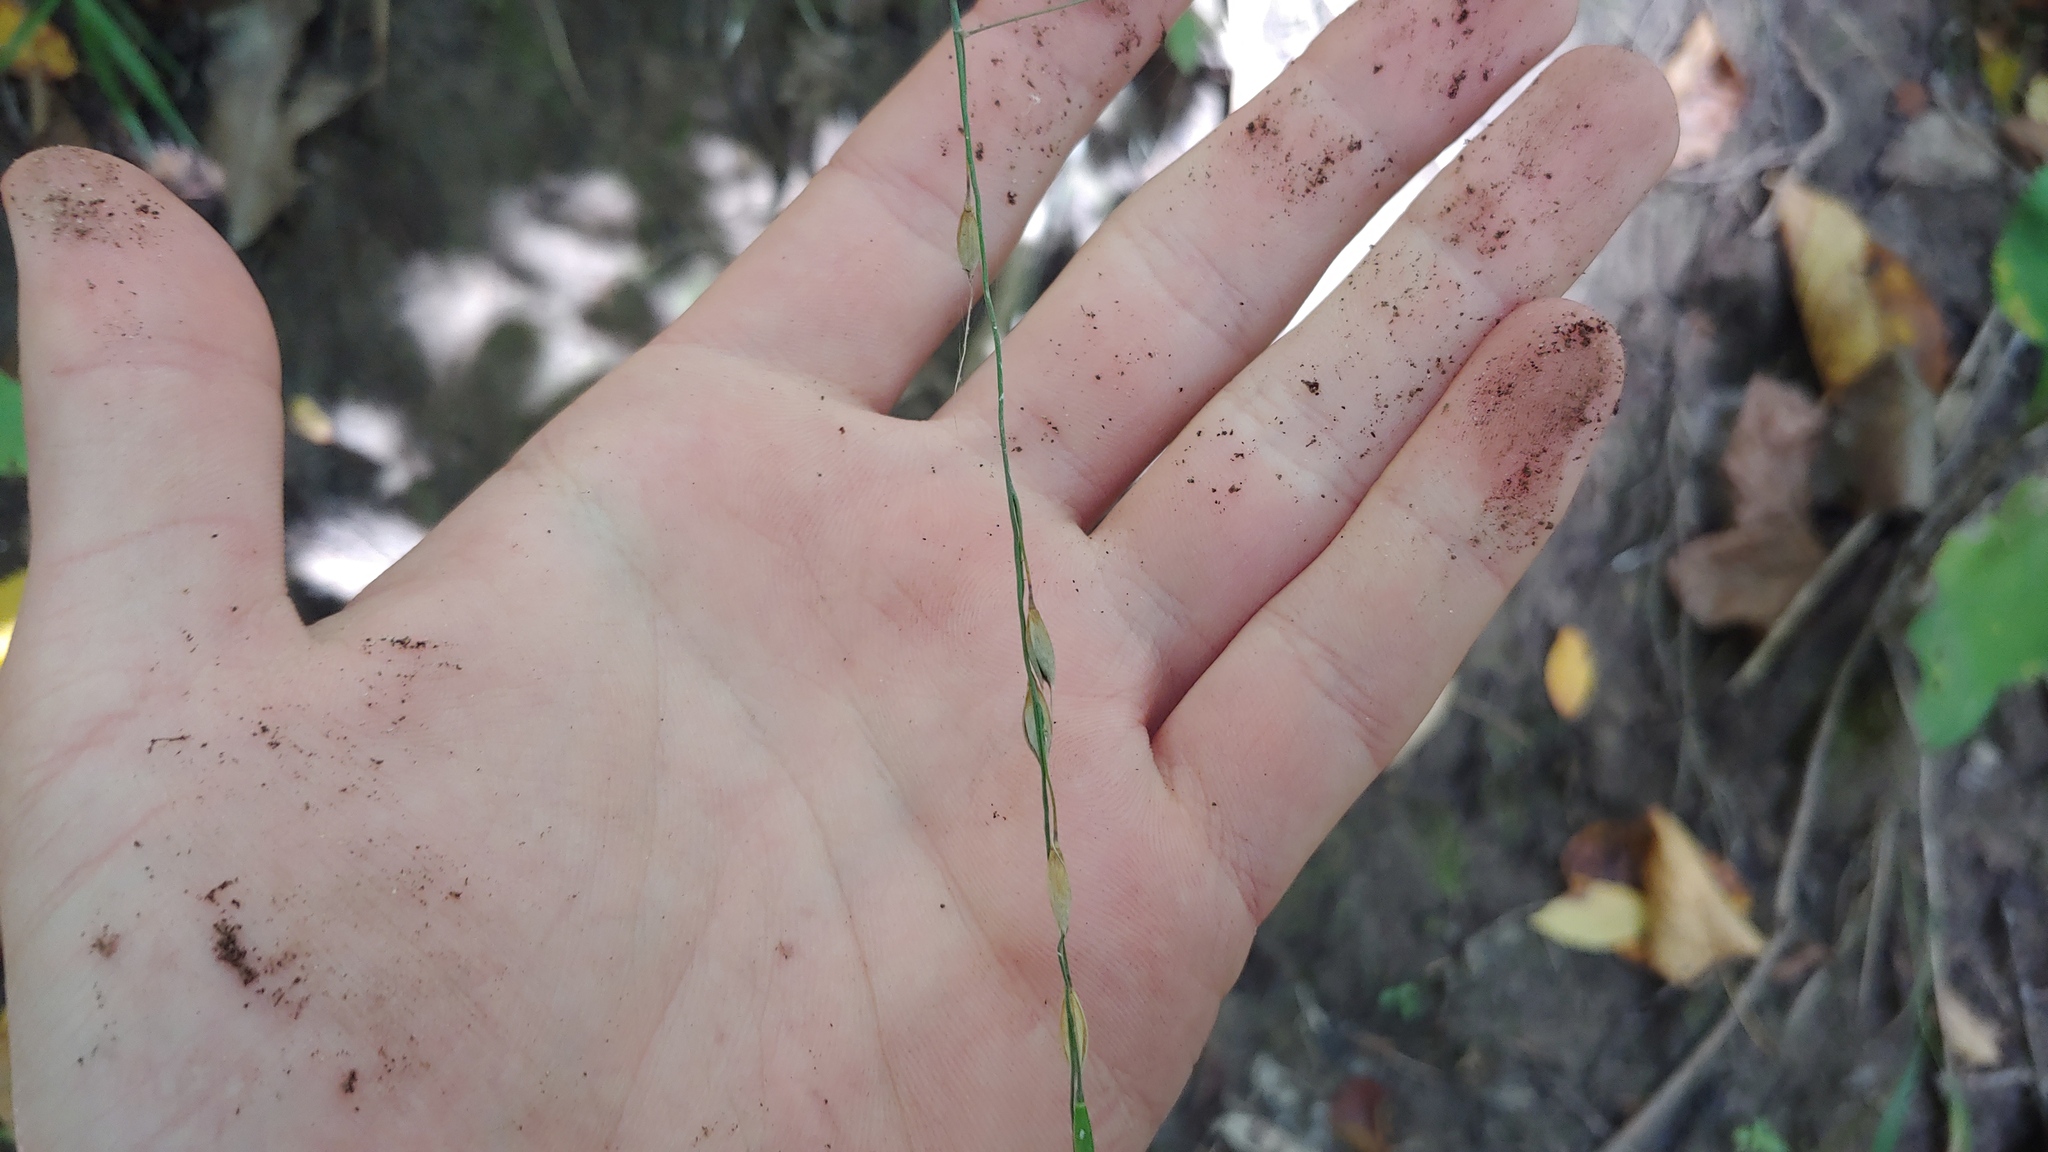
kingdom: Plantae
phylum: Tracheophyta
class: Liliopsida
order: Poales
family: Poaceae
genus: Patis
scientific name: Patis racemosa
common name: Black-fruited mountain rice
